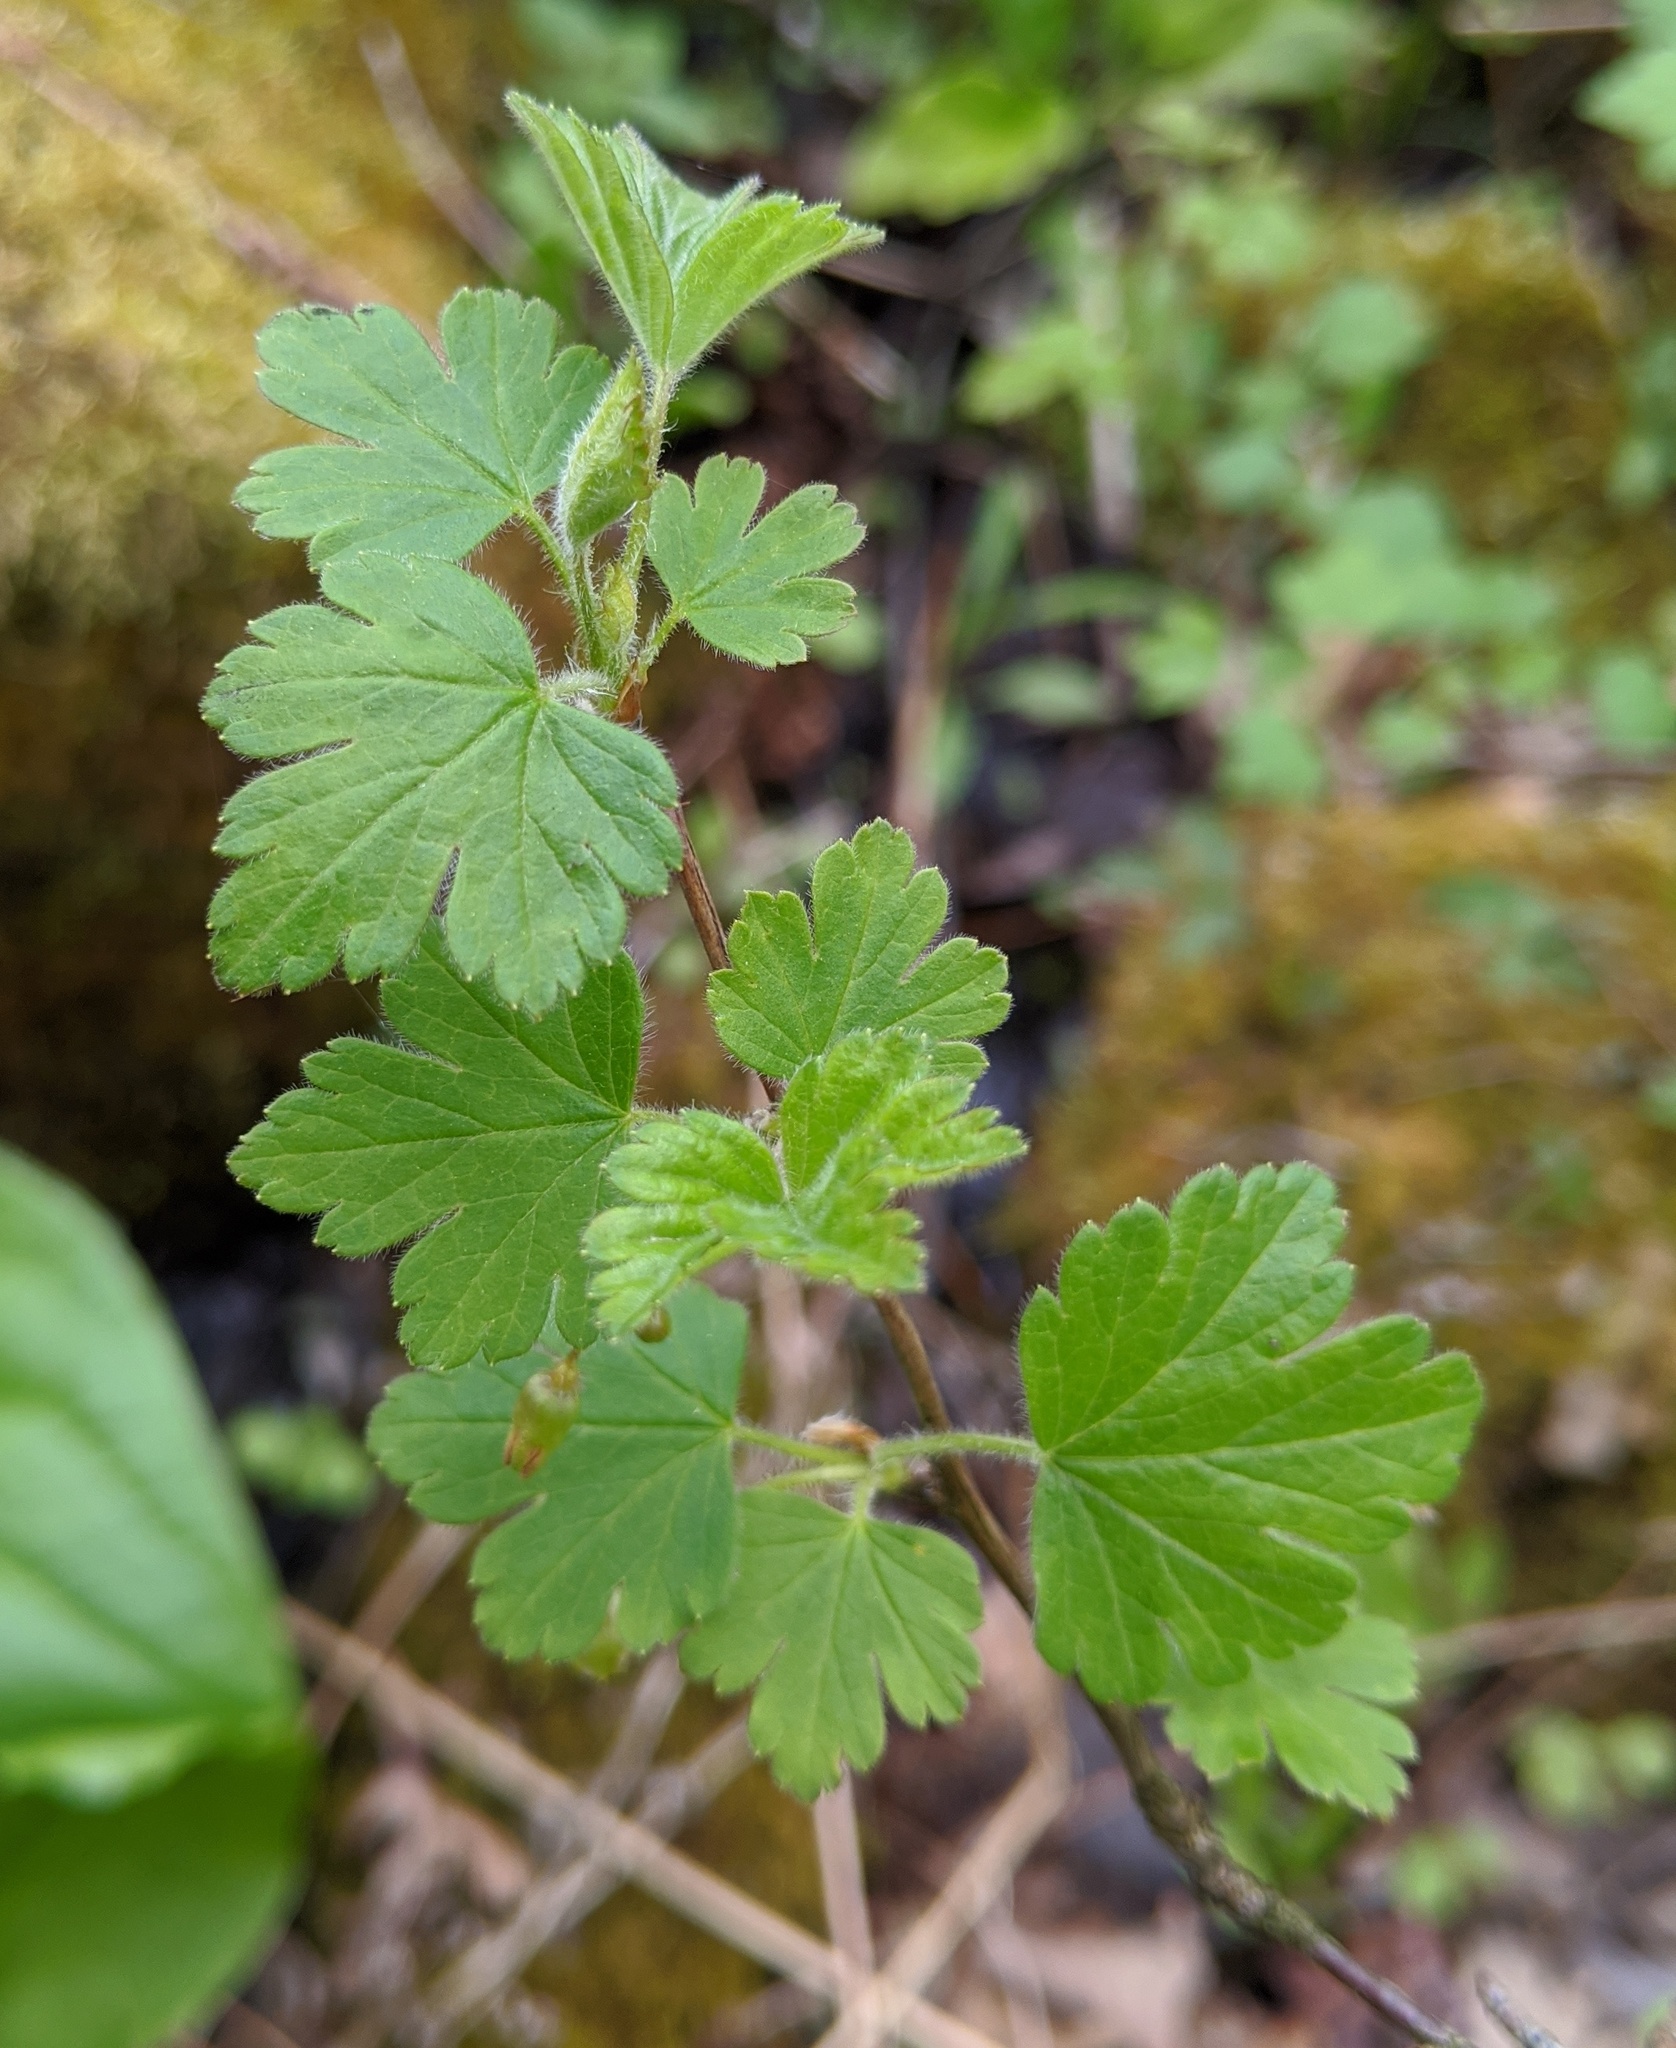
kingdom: Plantae
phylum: Tracheophyta
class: Magnoliopsida
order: Saxifragales
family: Grossulariaceae
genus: Ribes
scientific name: Ribes cynosbati
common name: American gooseberry
